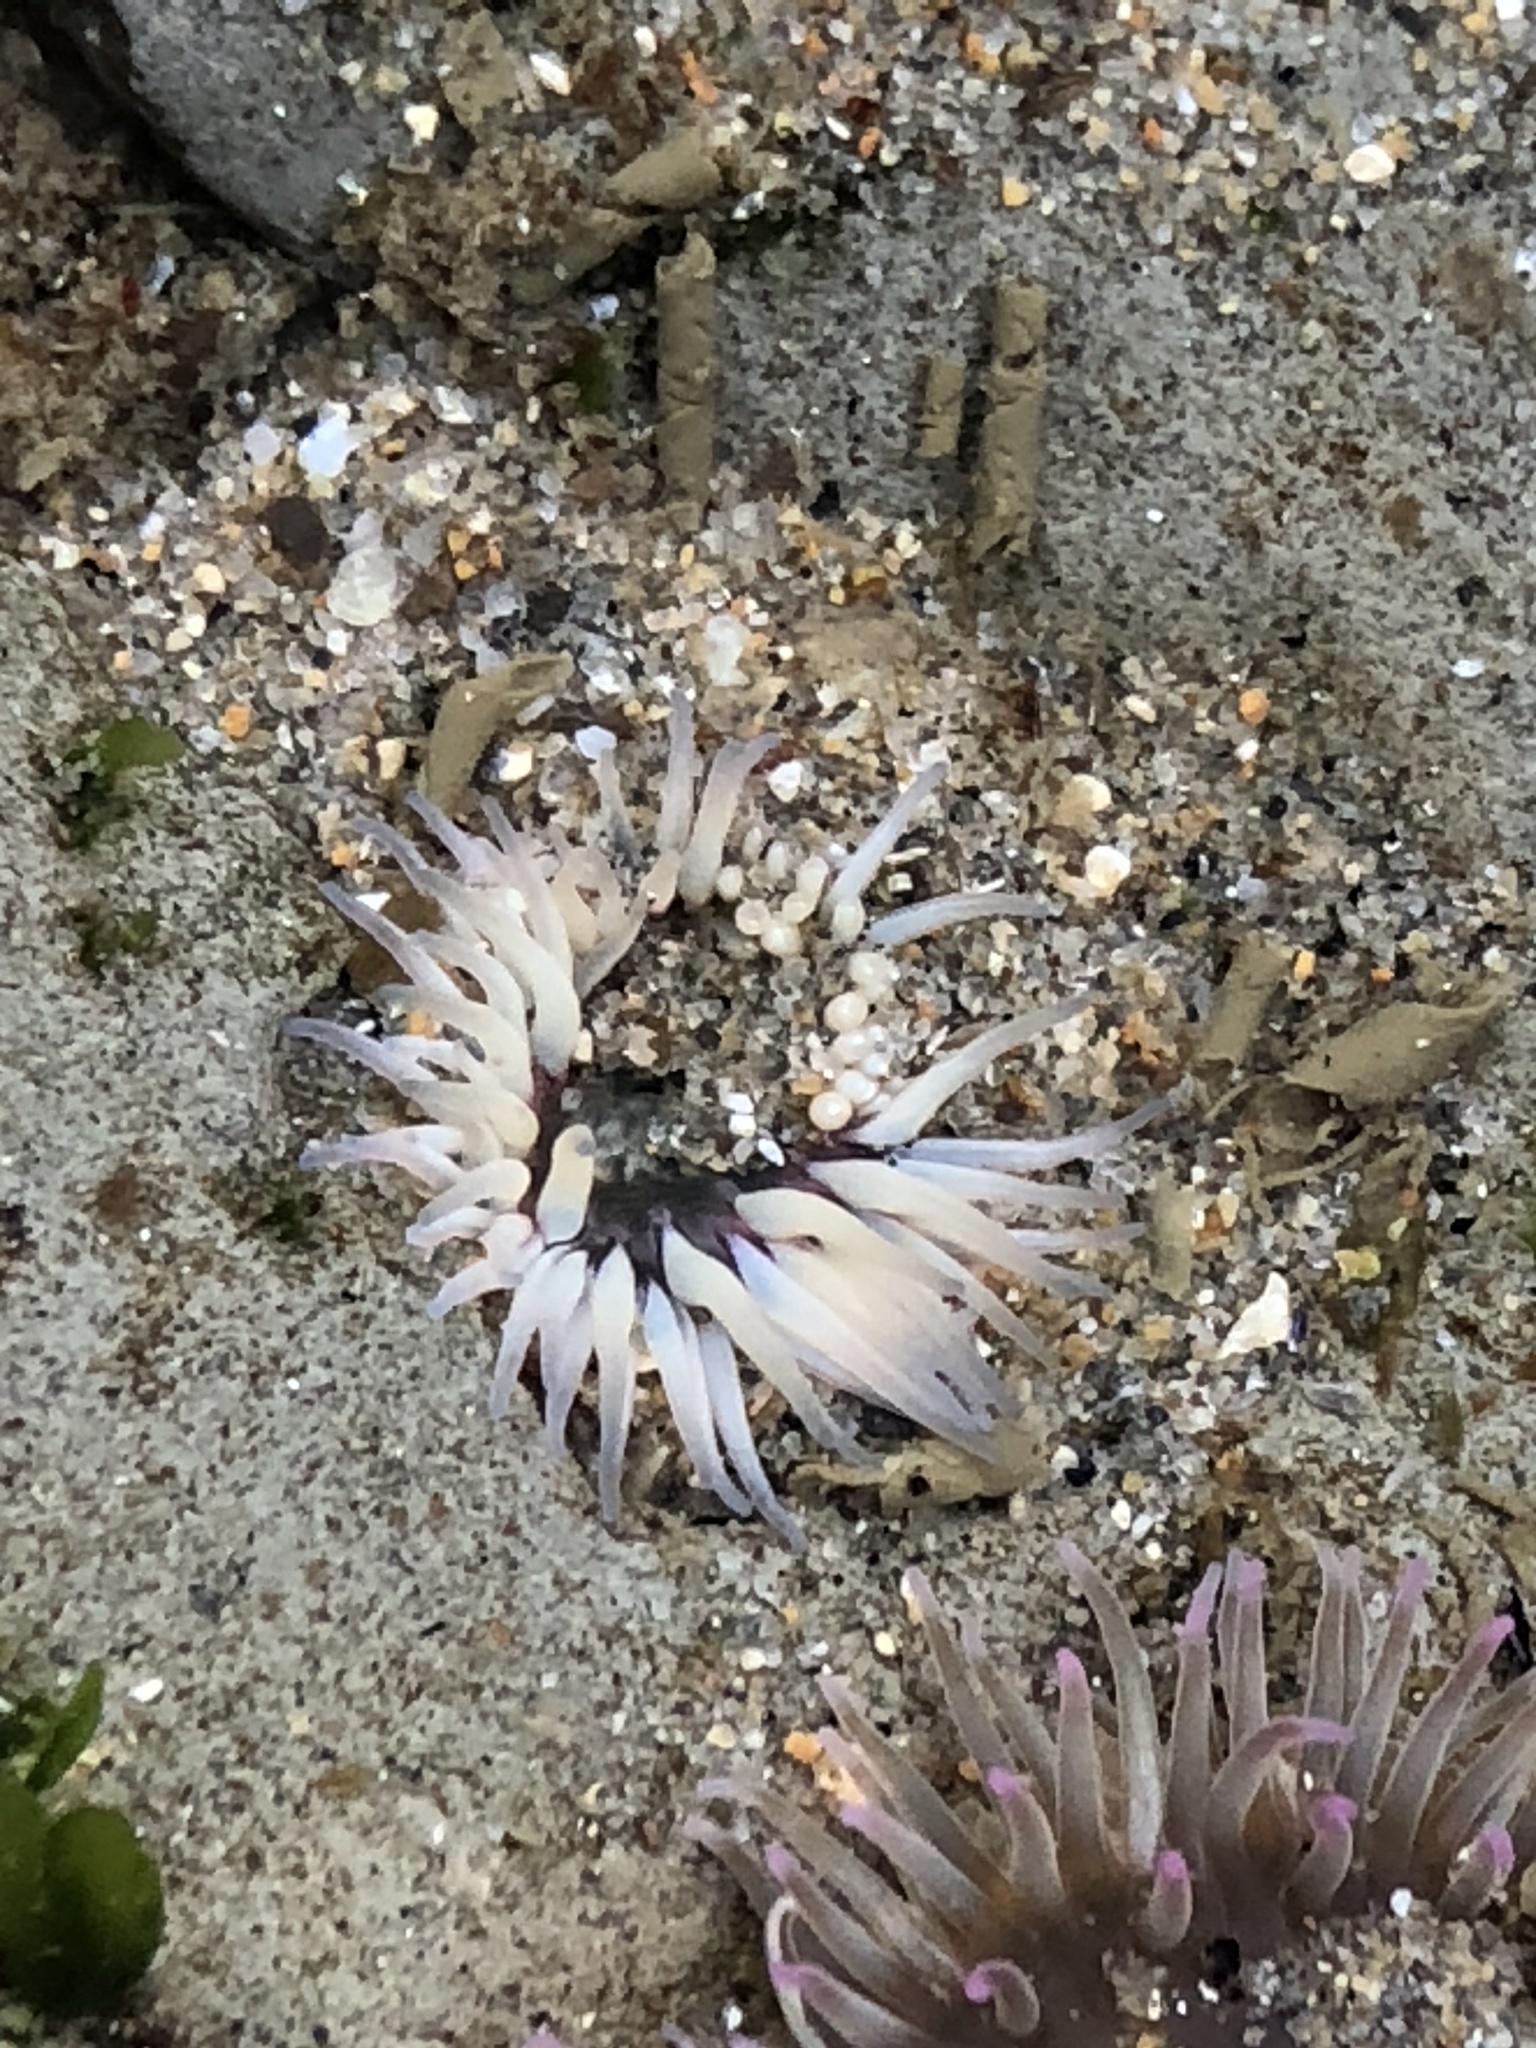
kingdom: Animalia
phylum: Cnidaria
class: Anthozoa
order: Actiniaria
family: Actiniidae
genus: Anthopleura
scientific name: Anthopleura artemisia
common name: Buried sea anemone
